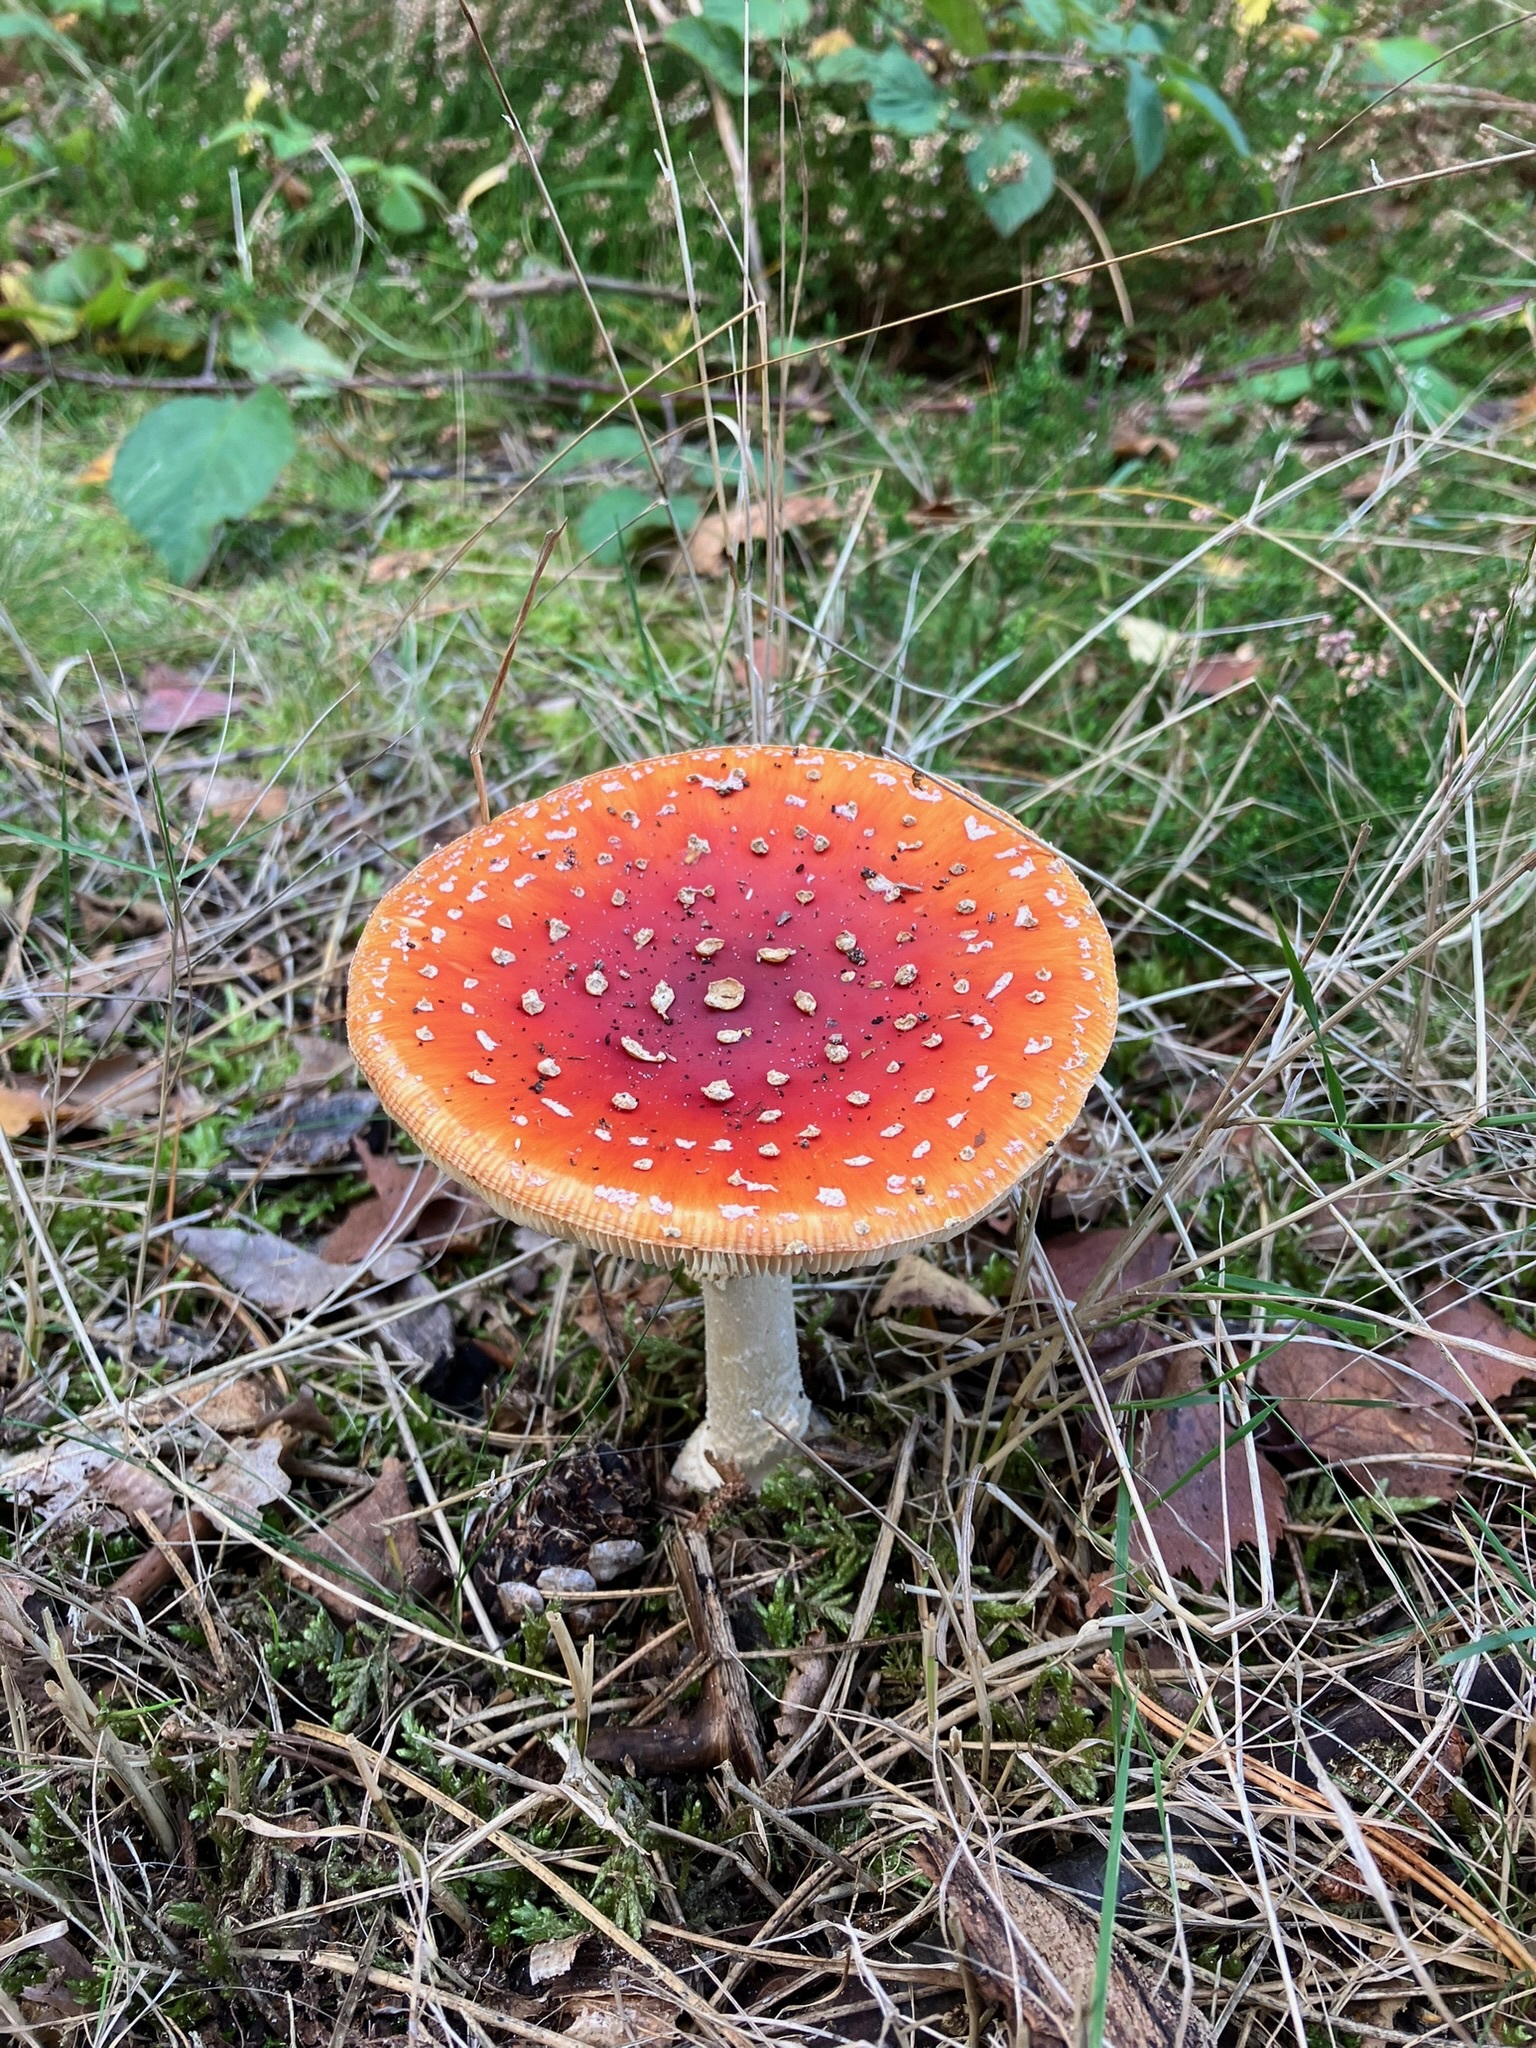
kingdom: Fungi
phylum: Basidiomycota
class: Agaricomycetes
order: Agaricales
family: Amanitaceae
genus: Amanita
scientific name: Amanita muscaria
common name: Fly agaric
